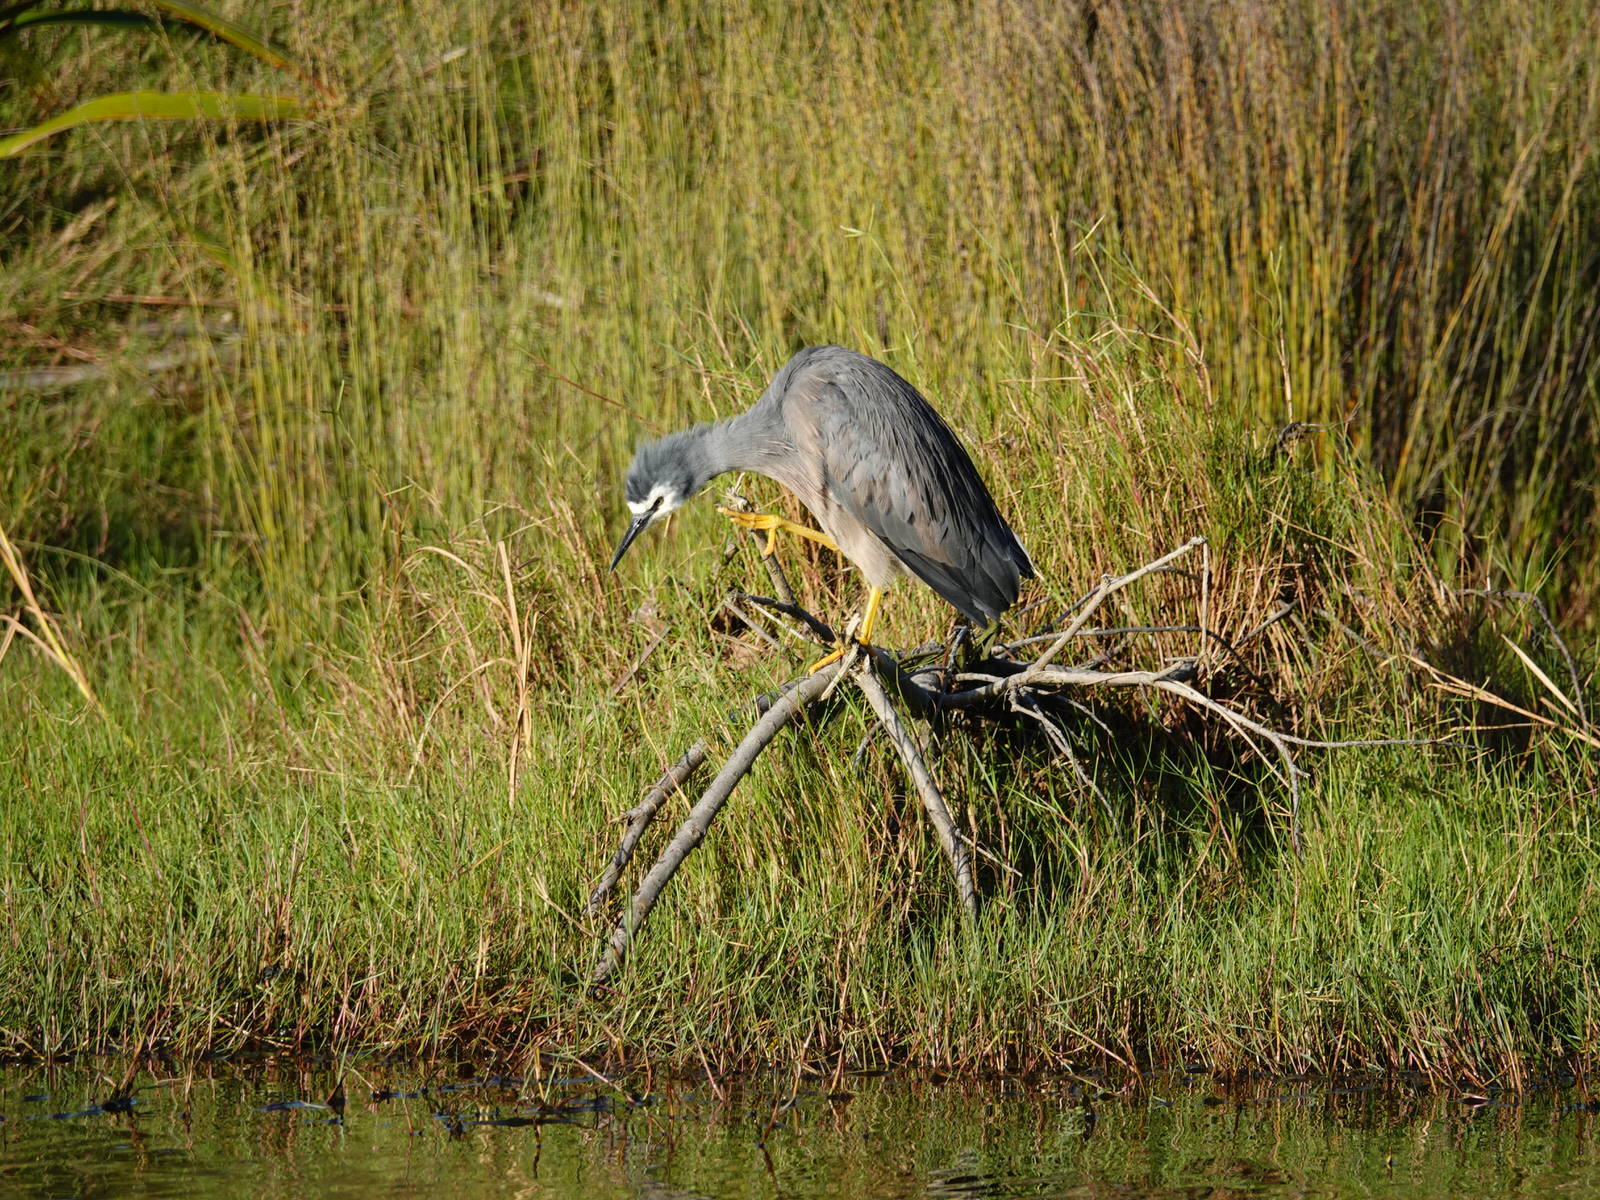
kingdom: Animalia
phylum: Chordata
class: Aves
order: Pelecaniformes
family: Ardeidae
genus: Egretta
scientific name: Egretta novaehollandiae
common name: White-faced heron
